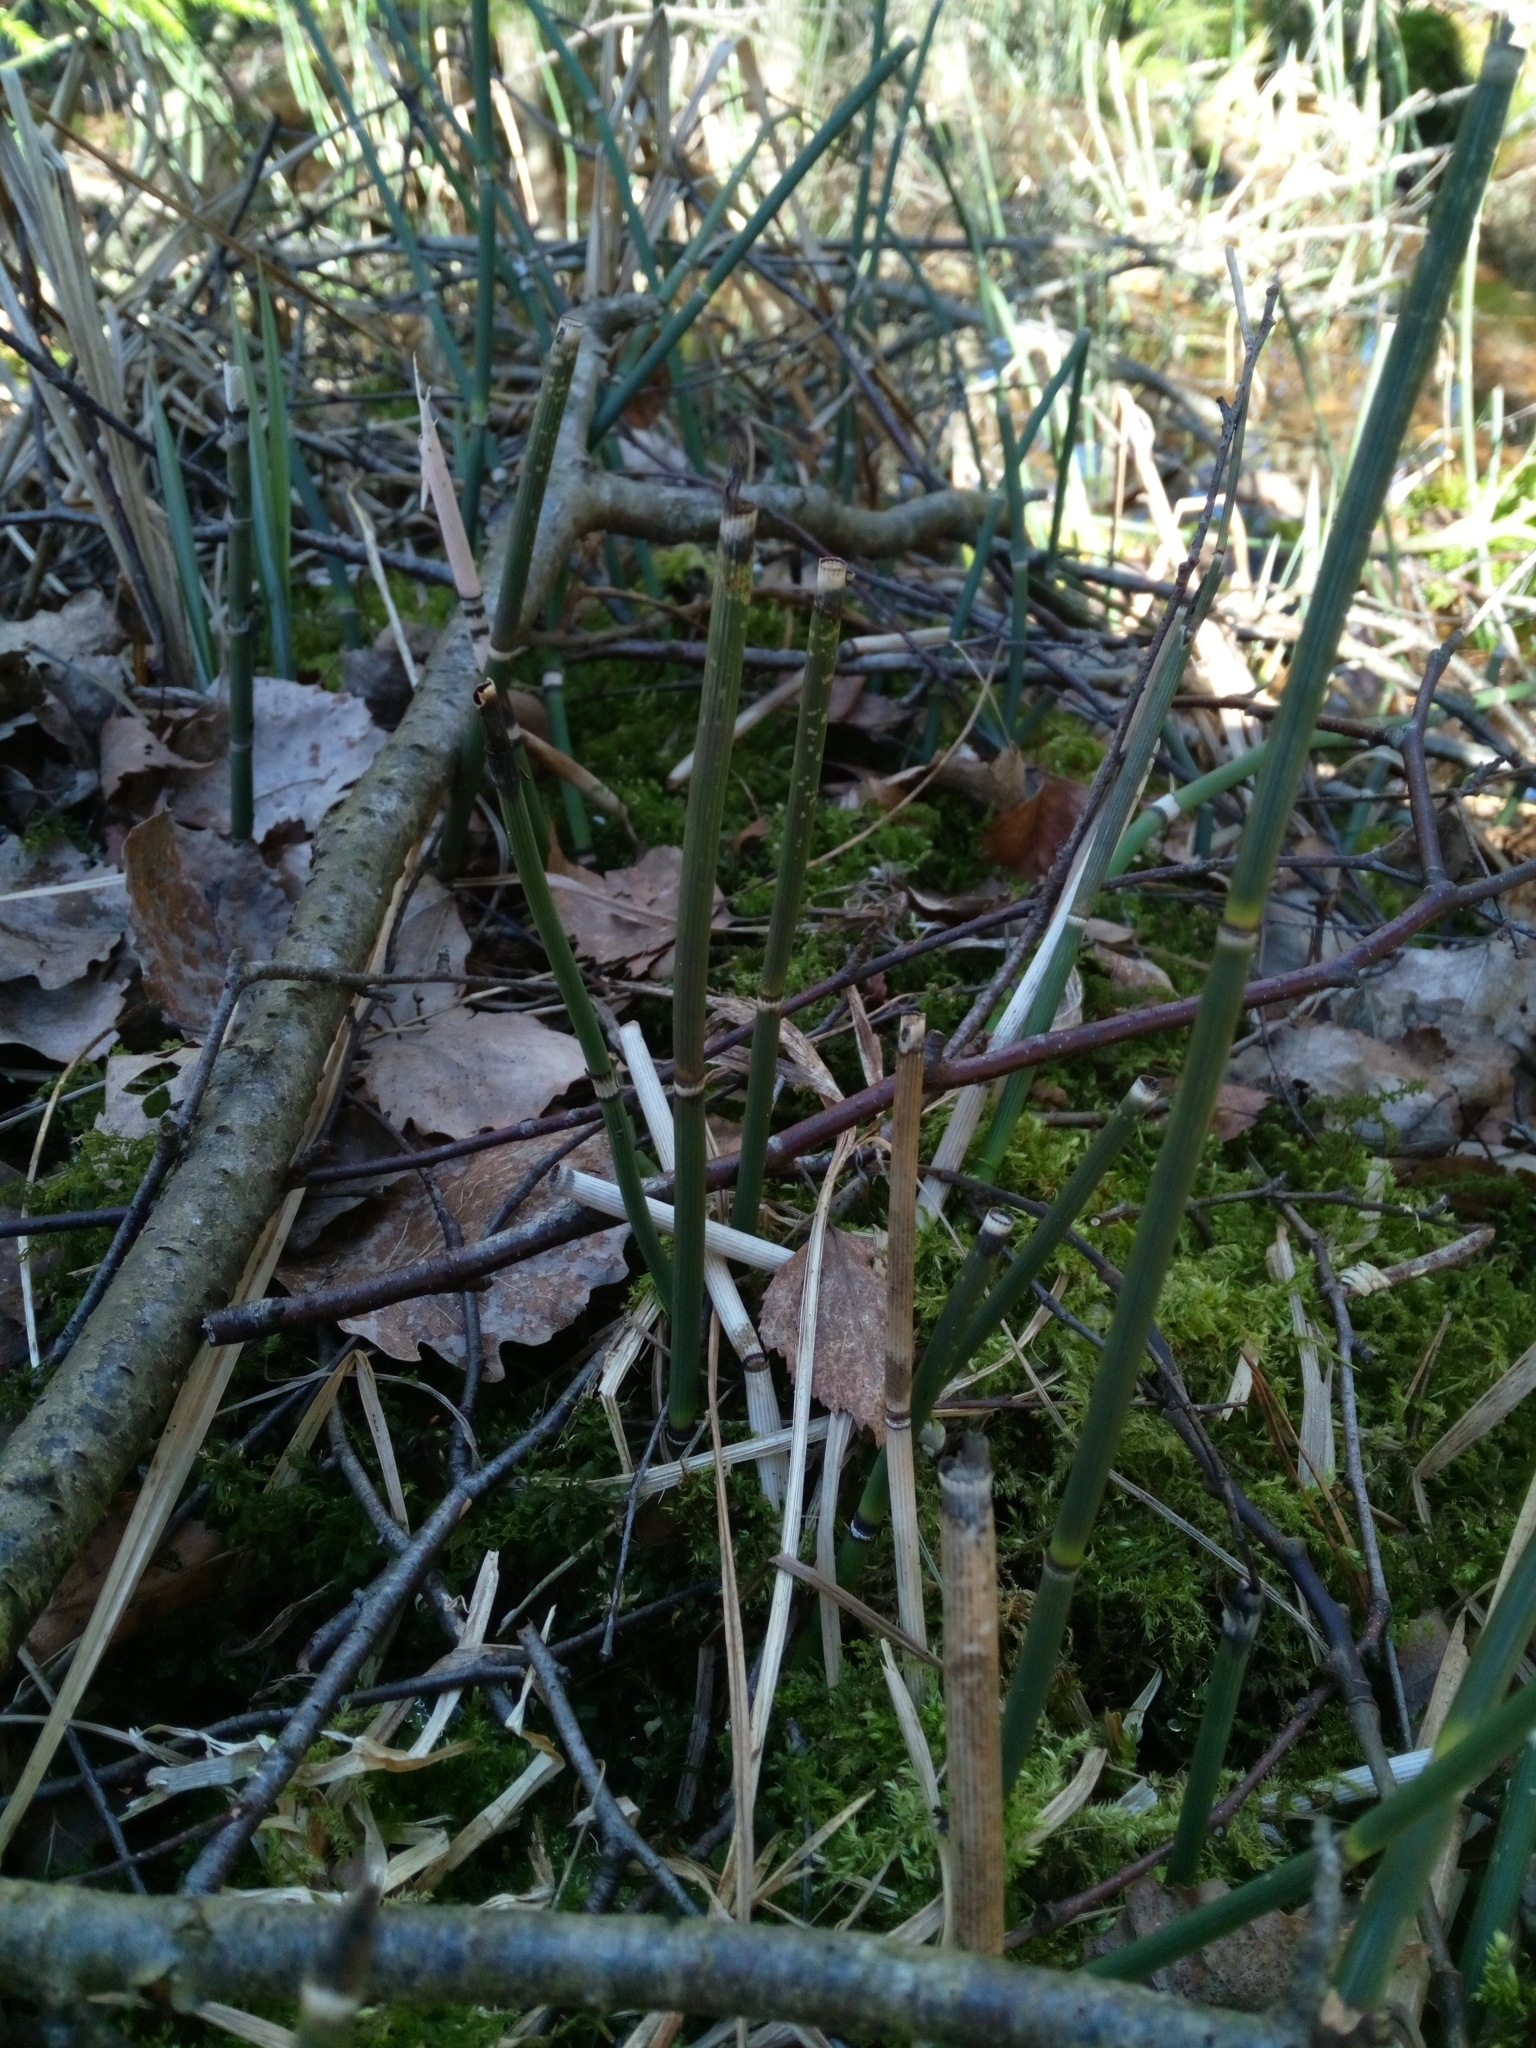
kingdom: Plantae
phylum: Tracheophyta
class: Polypodiopsida
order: Equisetales
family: Equisetaceae
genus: Equisetum
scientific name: Equisetum hyemale
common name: Rough horsetail
